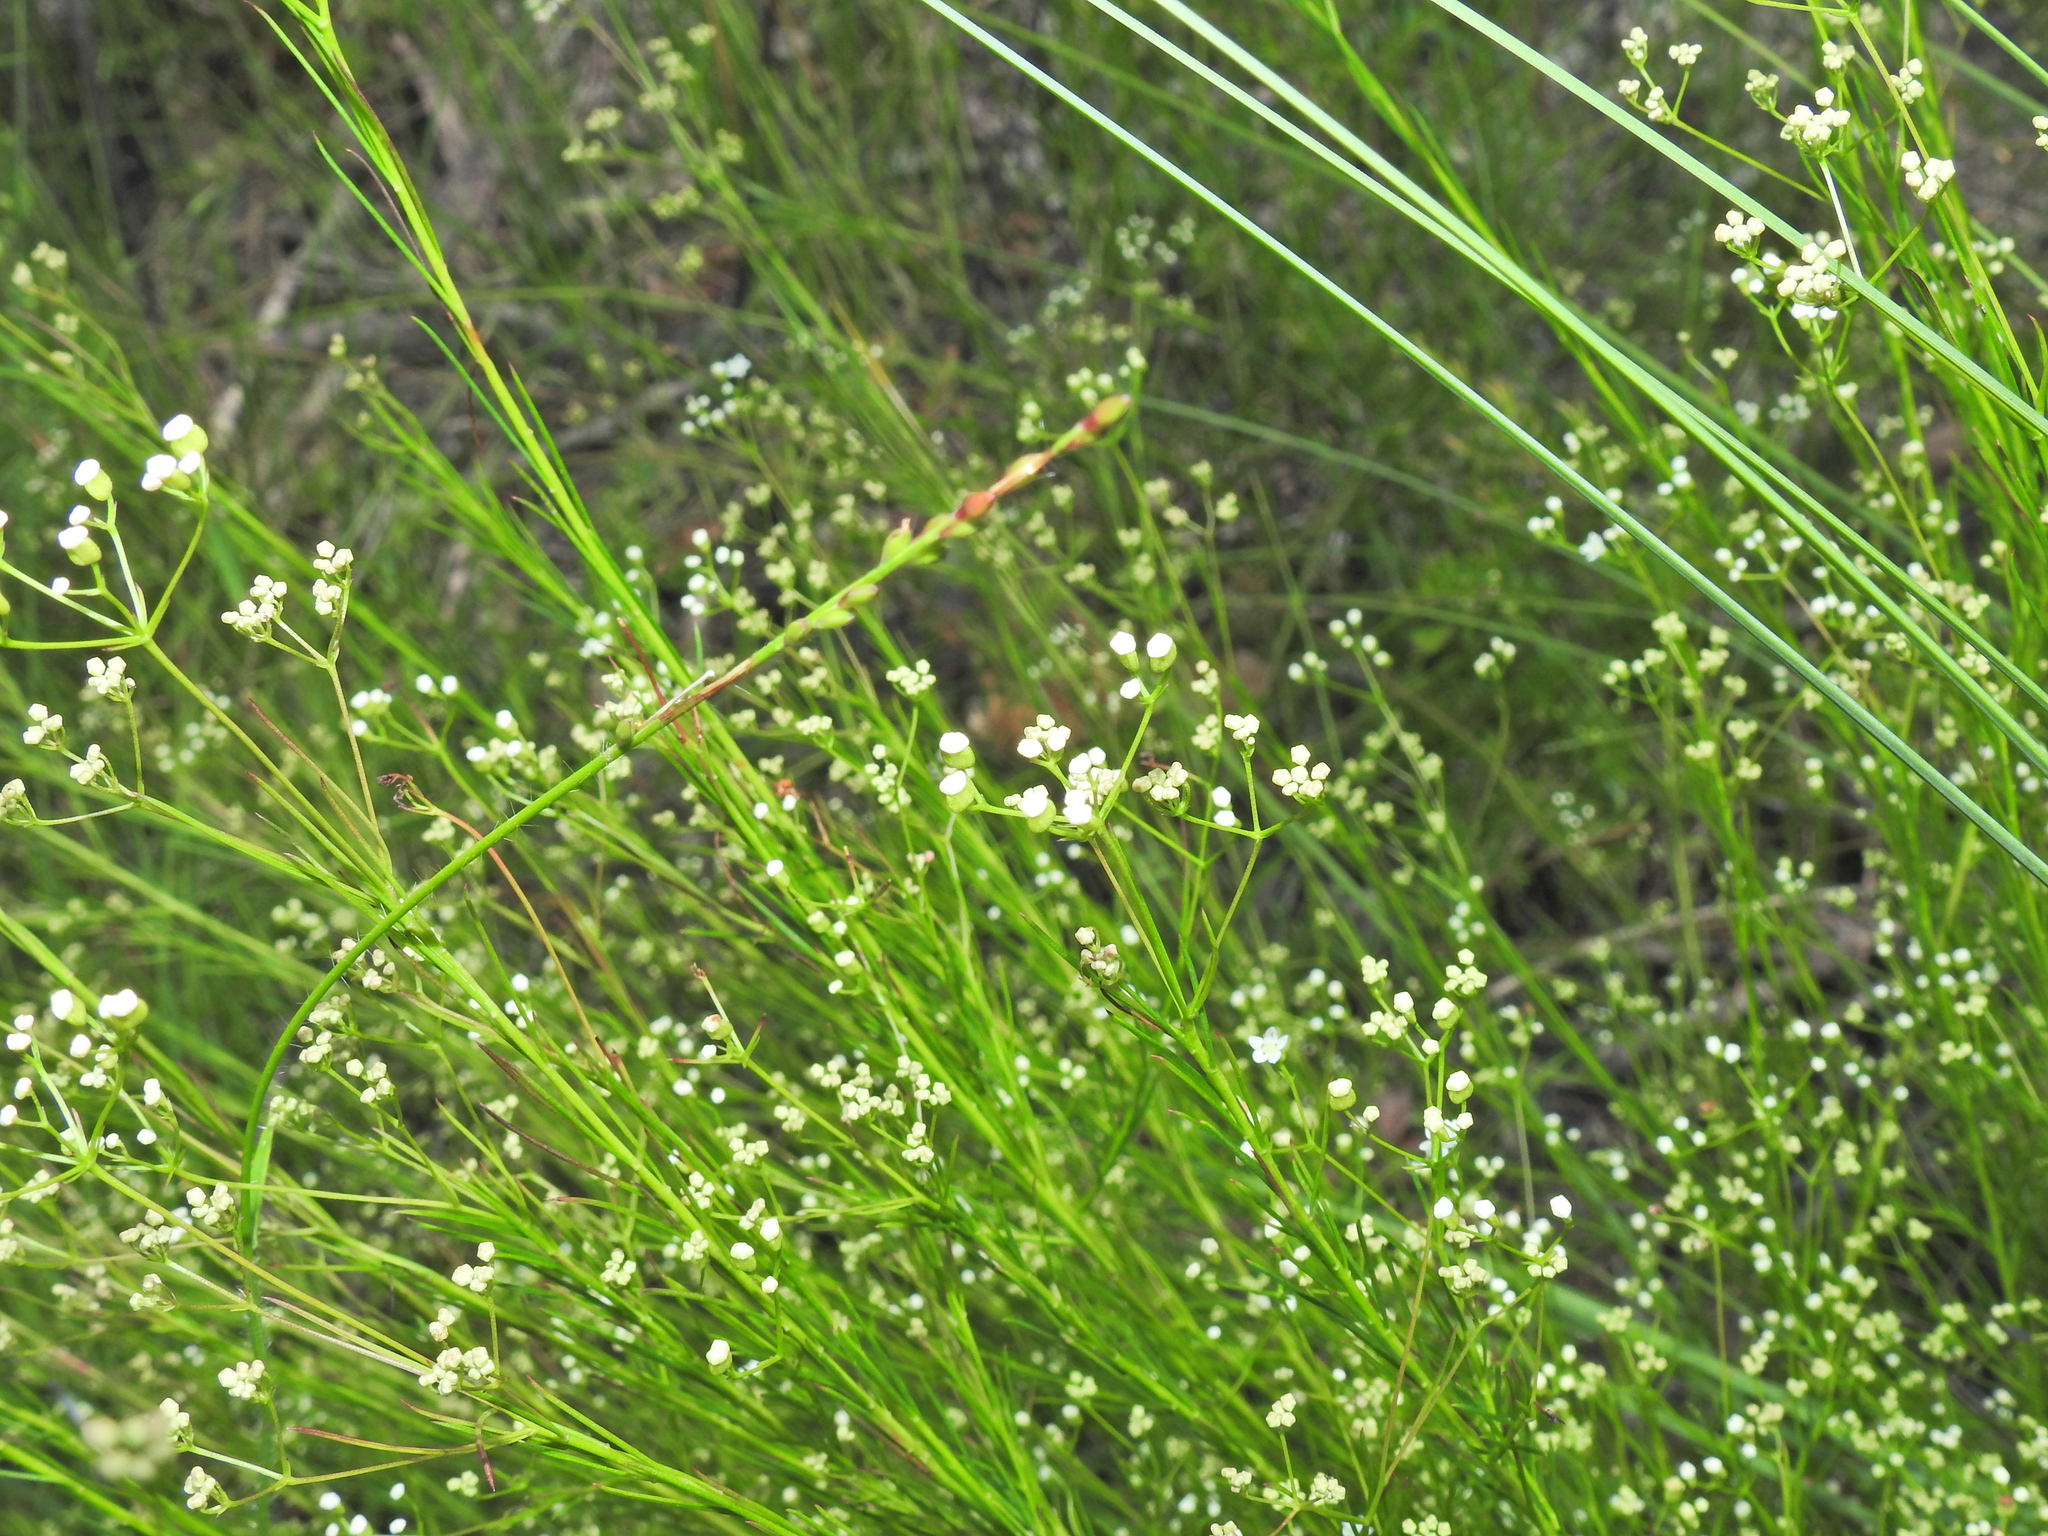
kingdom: Plantae
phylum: Tracheophyta
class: Magnoliopsida
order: Apiales
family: Apiaceae
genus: Platysace
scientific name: Platysace linearifolia
